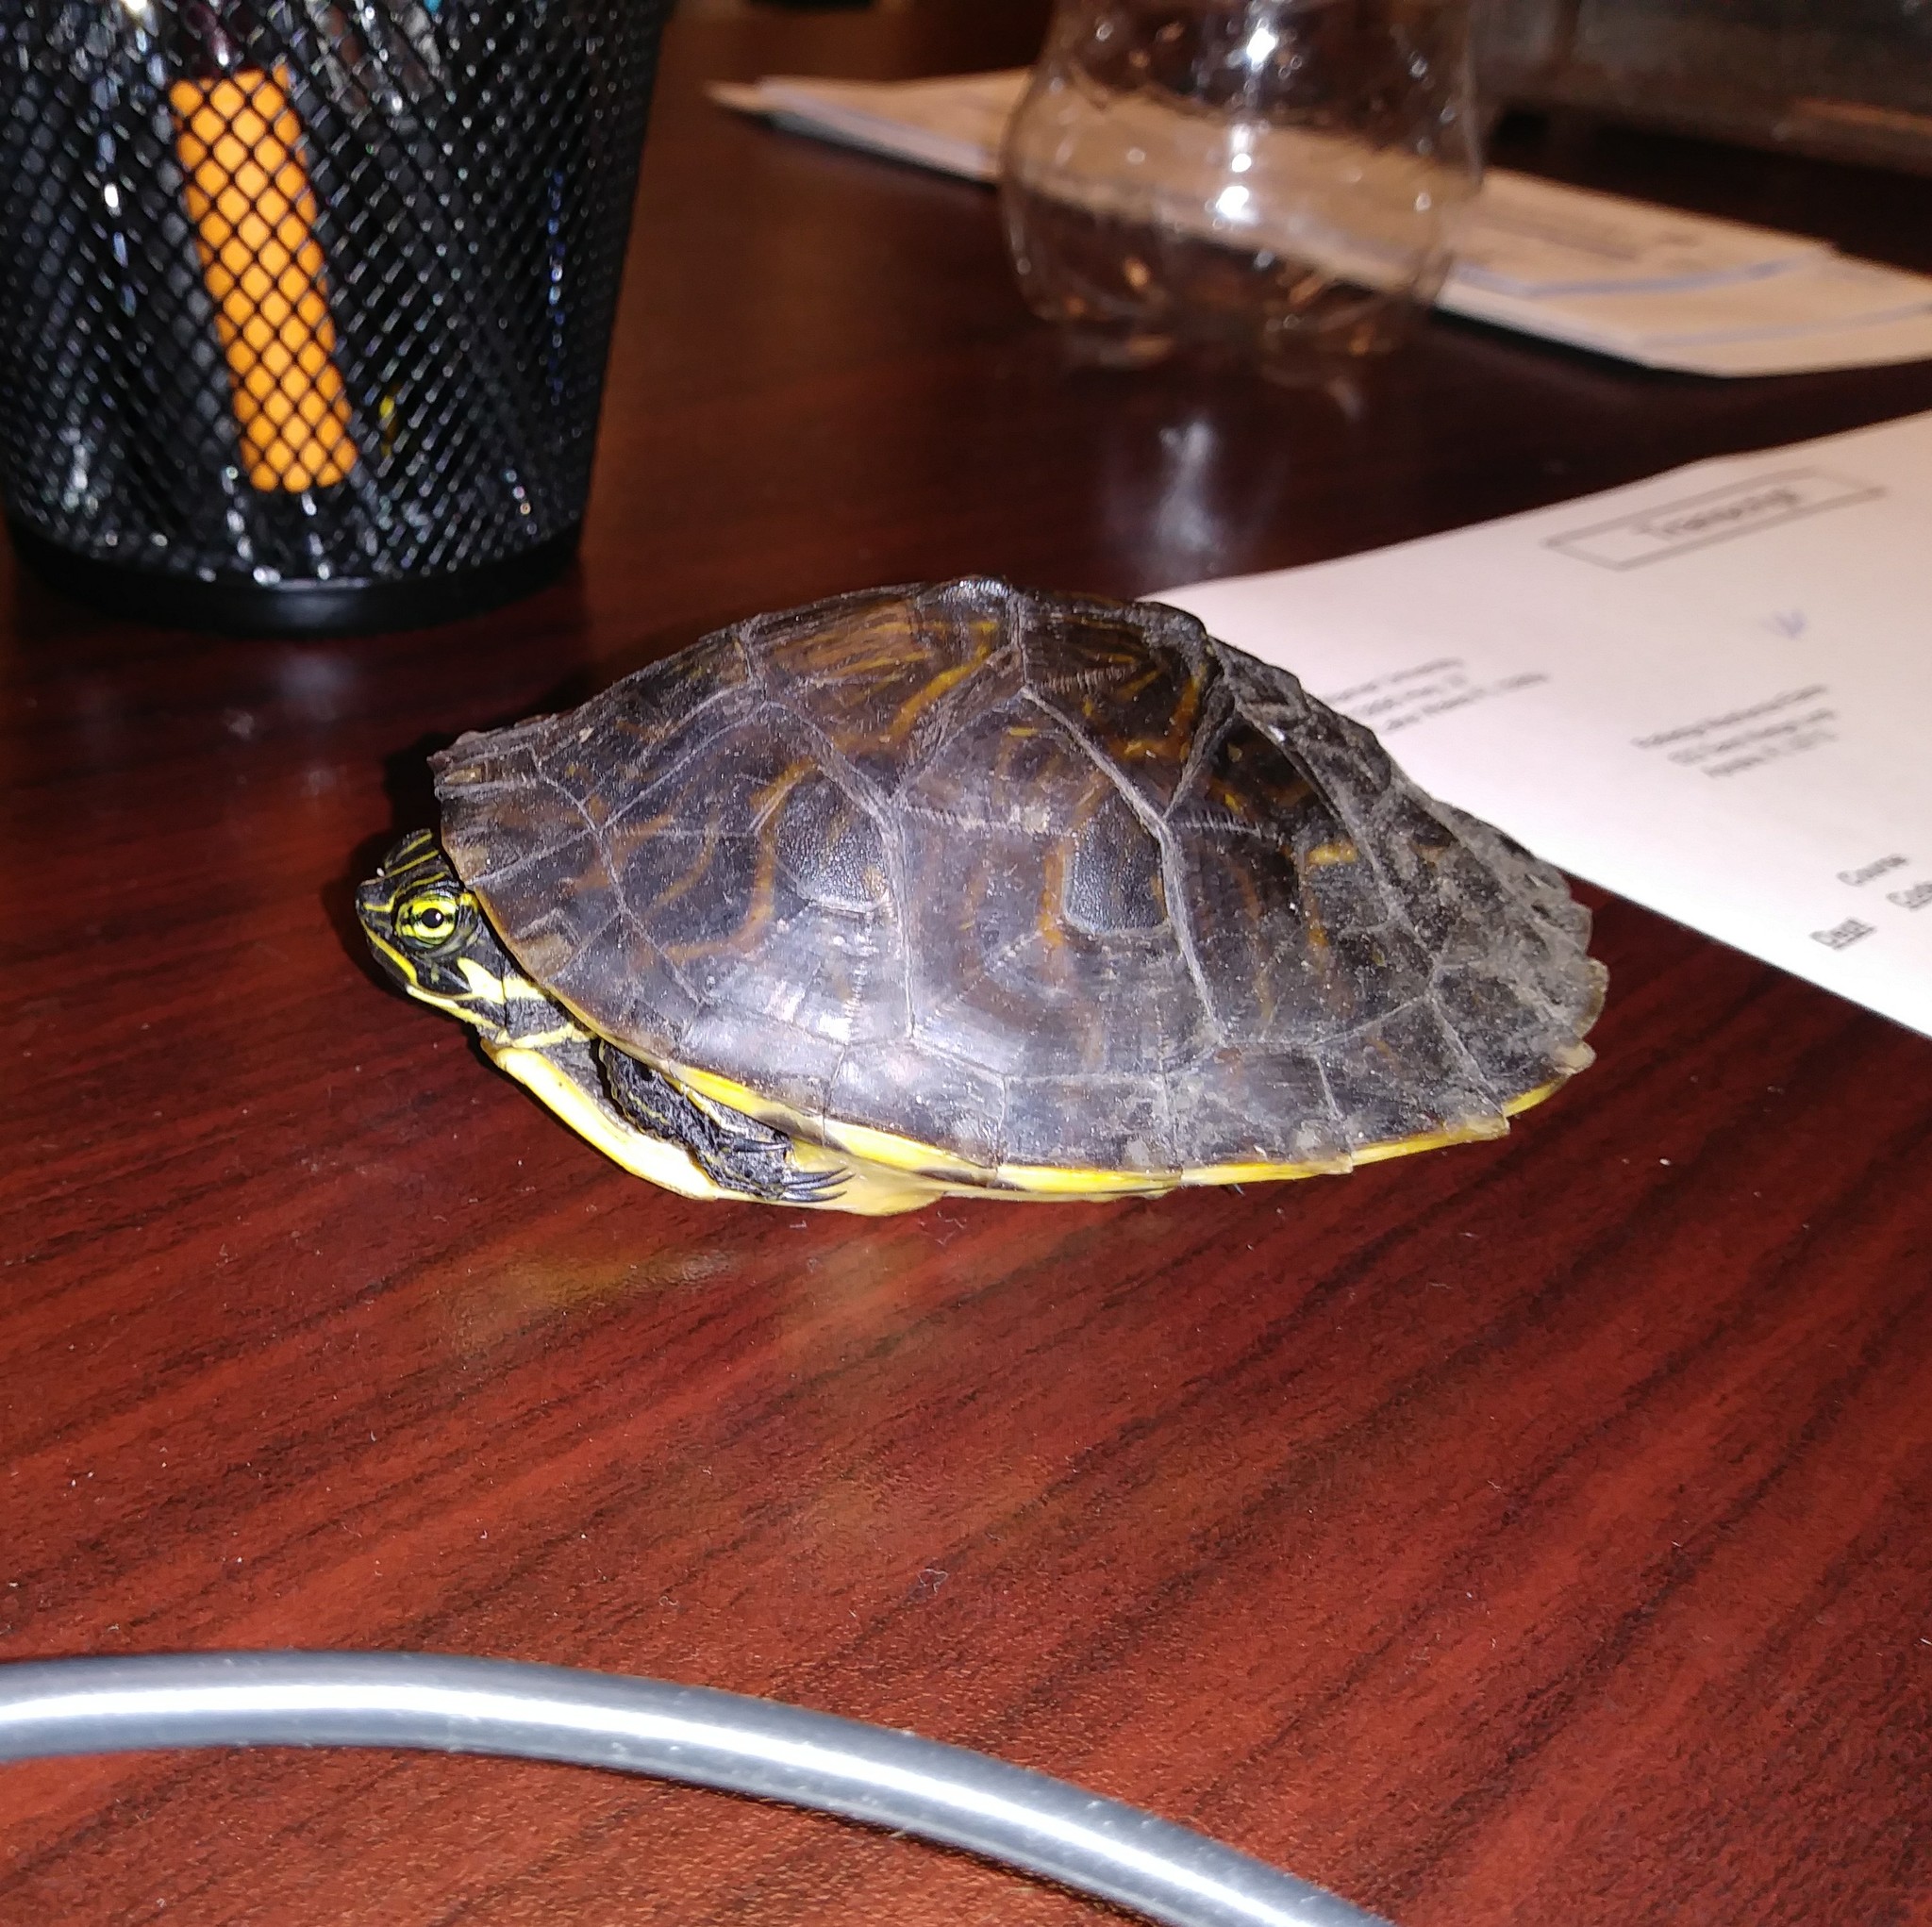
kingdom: Animalia
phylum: Chordata
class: Testudines
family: Emydidae
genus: Pseudemys
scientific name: Pseudemys peninsularis
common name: Peninsula cooter
